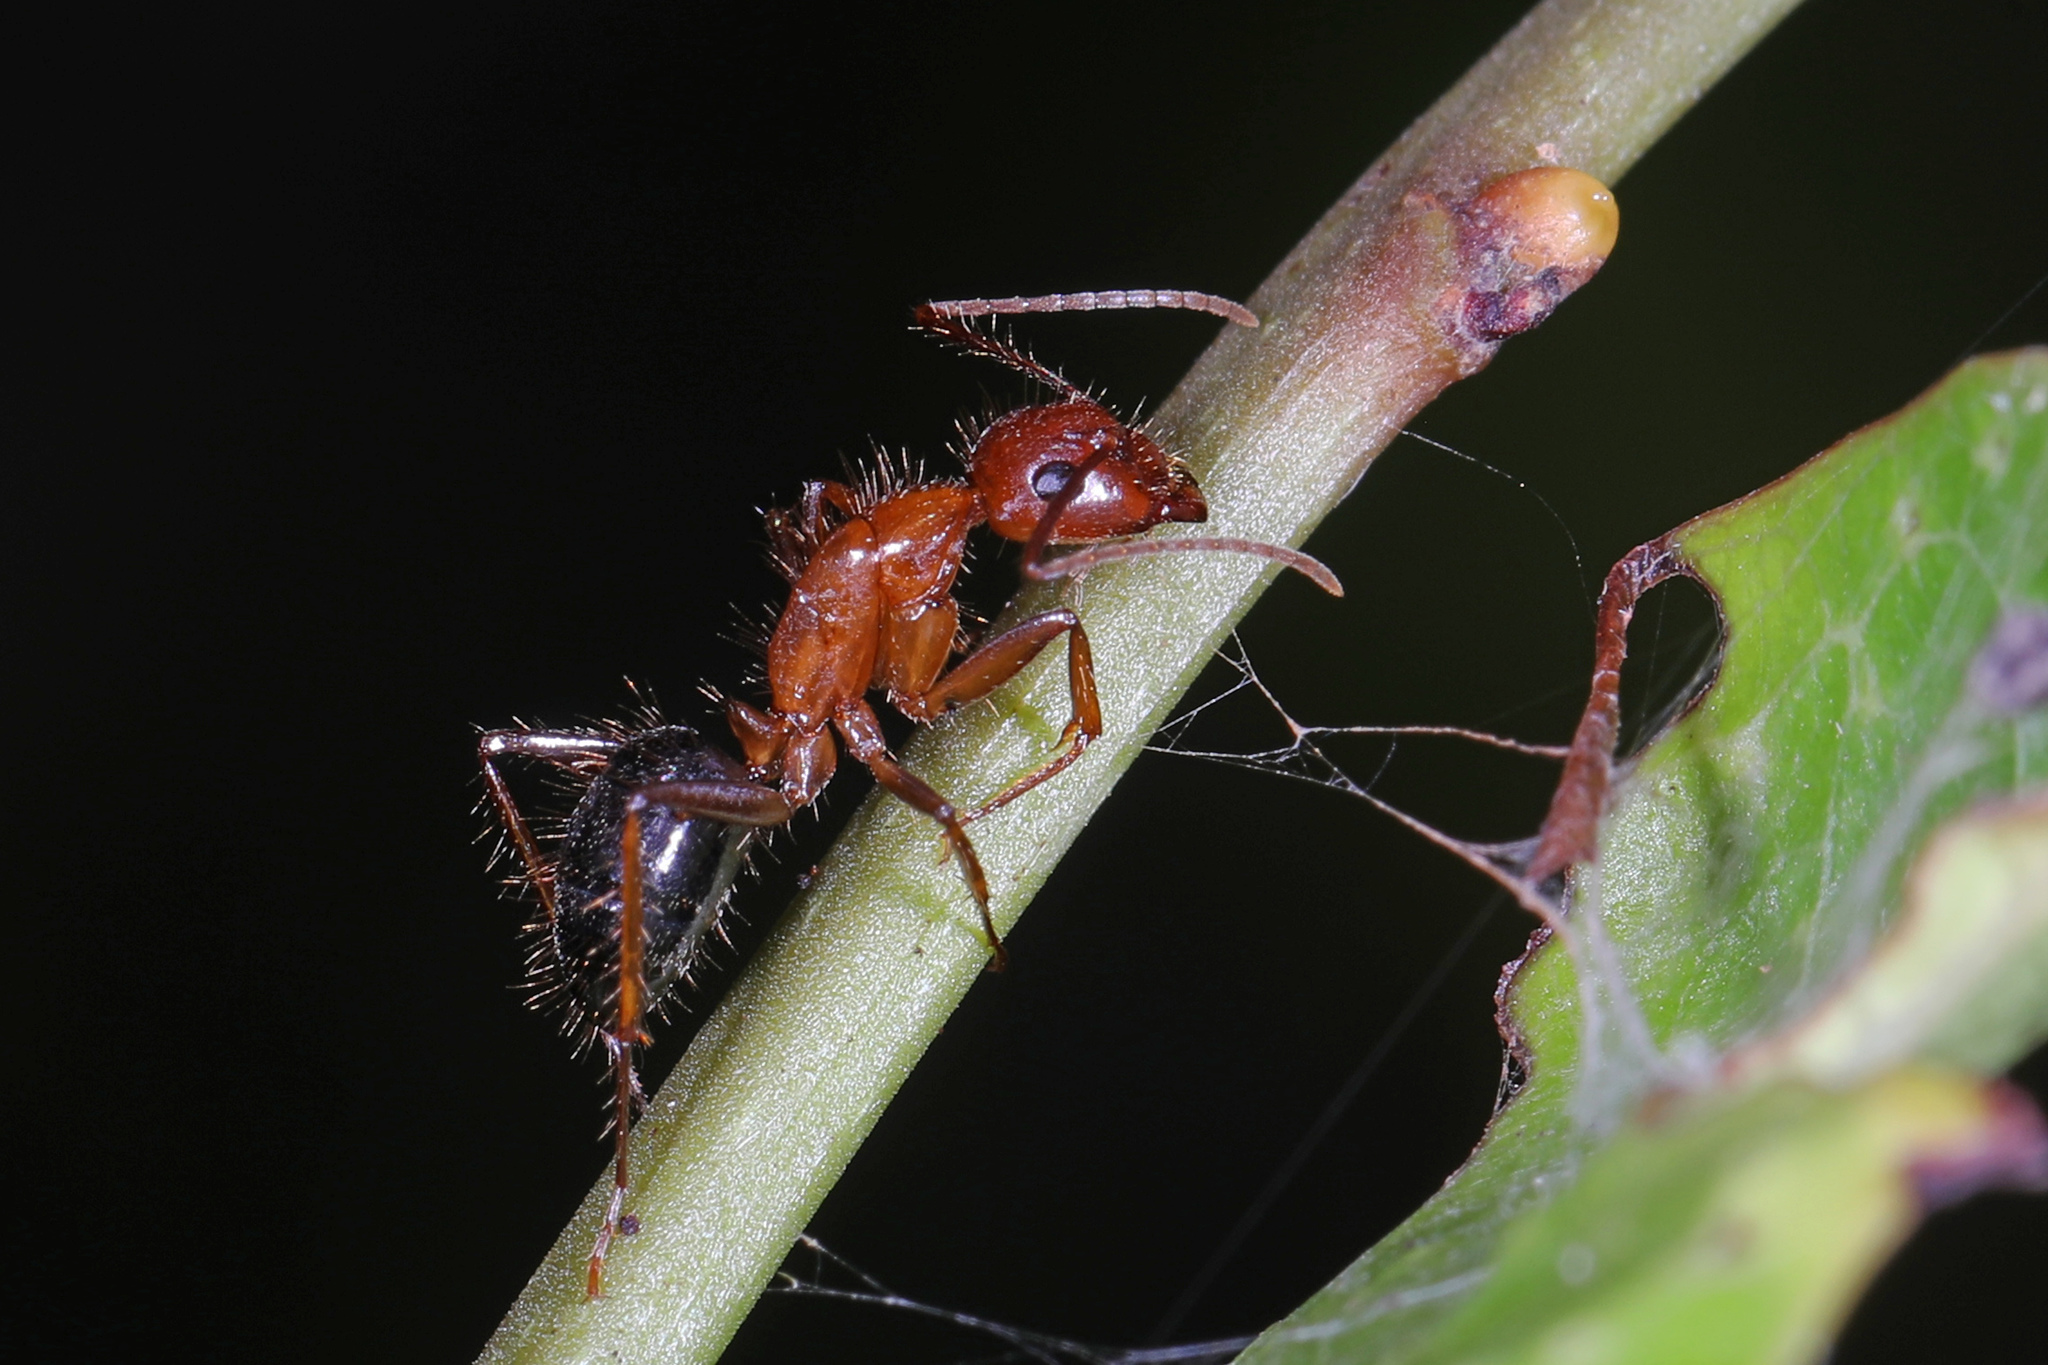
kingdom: Animalia
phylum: Arthropoda
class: Insecta
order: Hymenoptera
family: Formicidae
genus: Camponotus
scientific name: Camponotus floridanus
